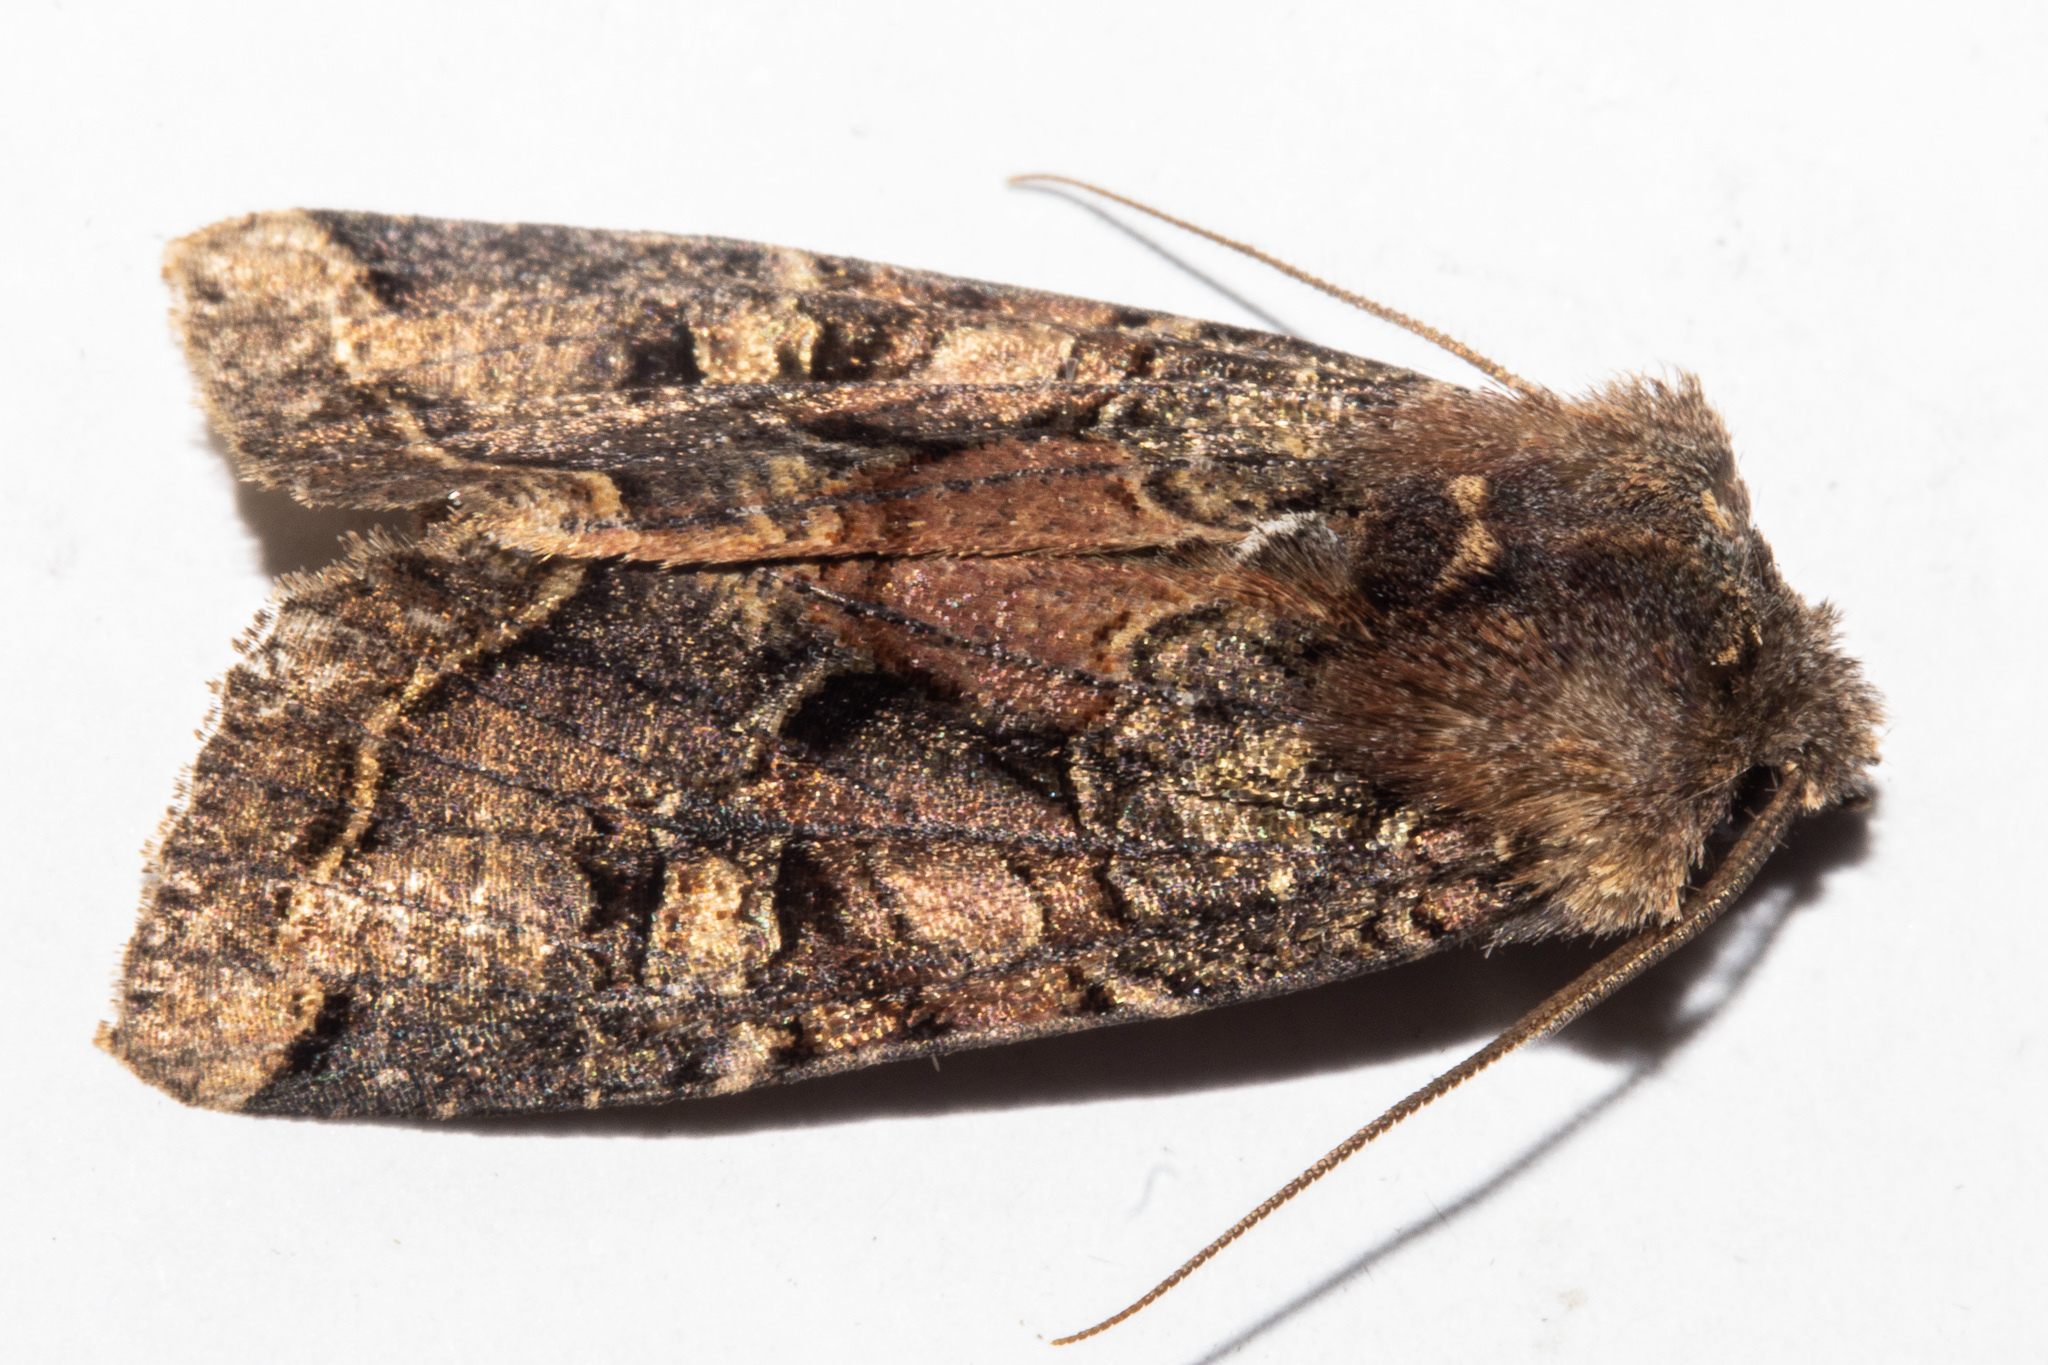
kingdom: Animalia
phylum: Arthropoda
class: Insecta
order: Lepidoptera
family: Noctuidae
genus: Meterana
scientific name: Meterana tartaraea
